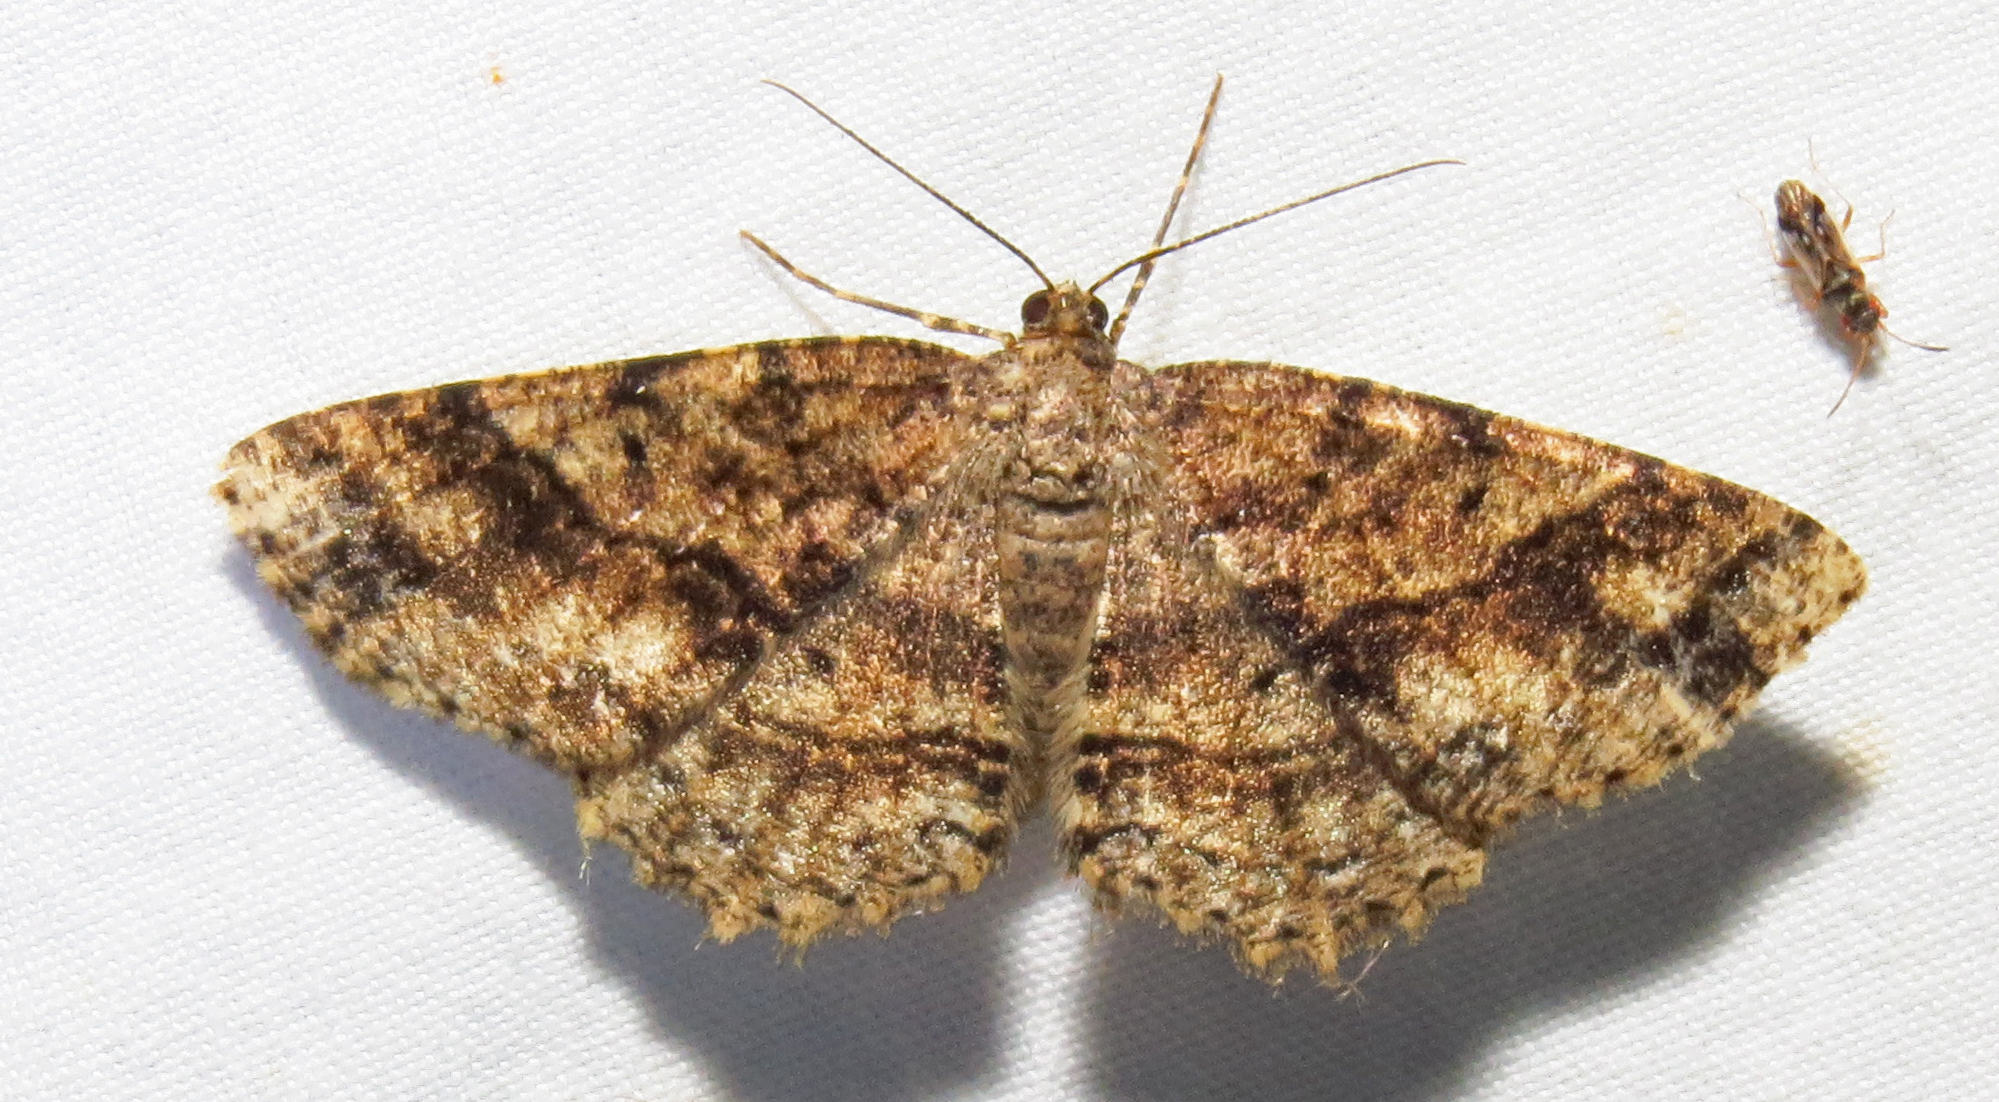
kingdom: Animalia
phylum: Arthropoda
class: Insecta
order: Lepidoptera
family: Geometridae
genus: Melanolophia
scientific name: Melanolophia canadaria
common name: Canadian melanolophia
